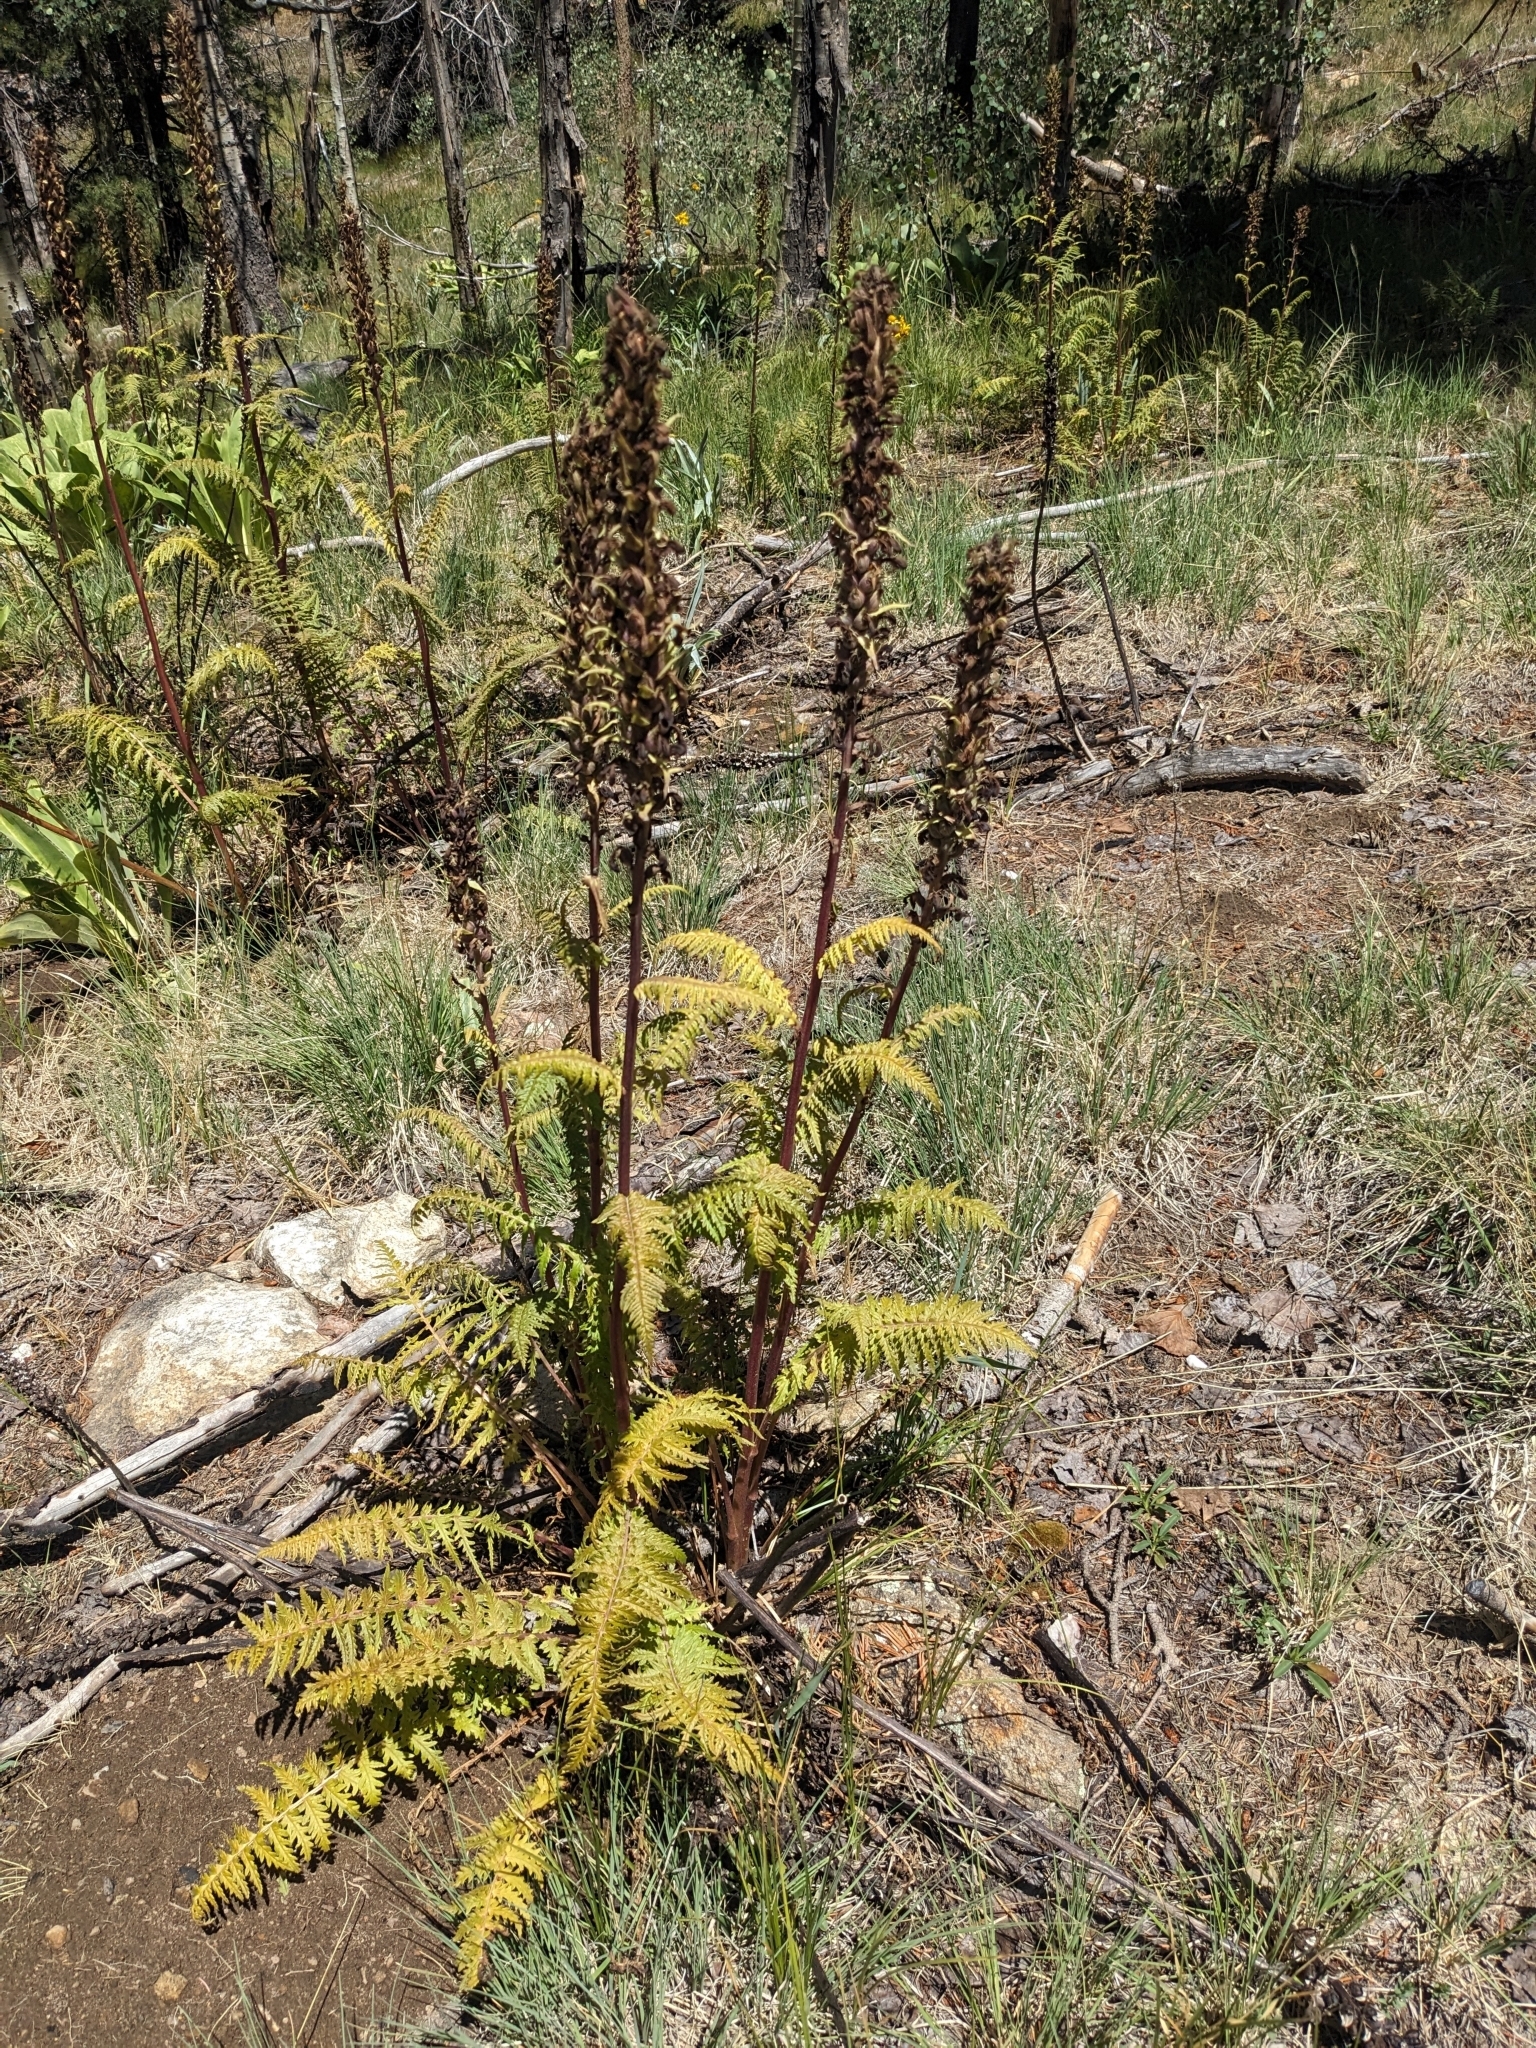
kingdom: Plantae
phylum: Tracheophyta
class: Magnoliopsida
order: Lamiales
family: Orobanchaceae
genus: Pedicularis
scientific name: Pedicularis procera
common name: Gray's lousewort
